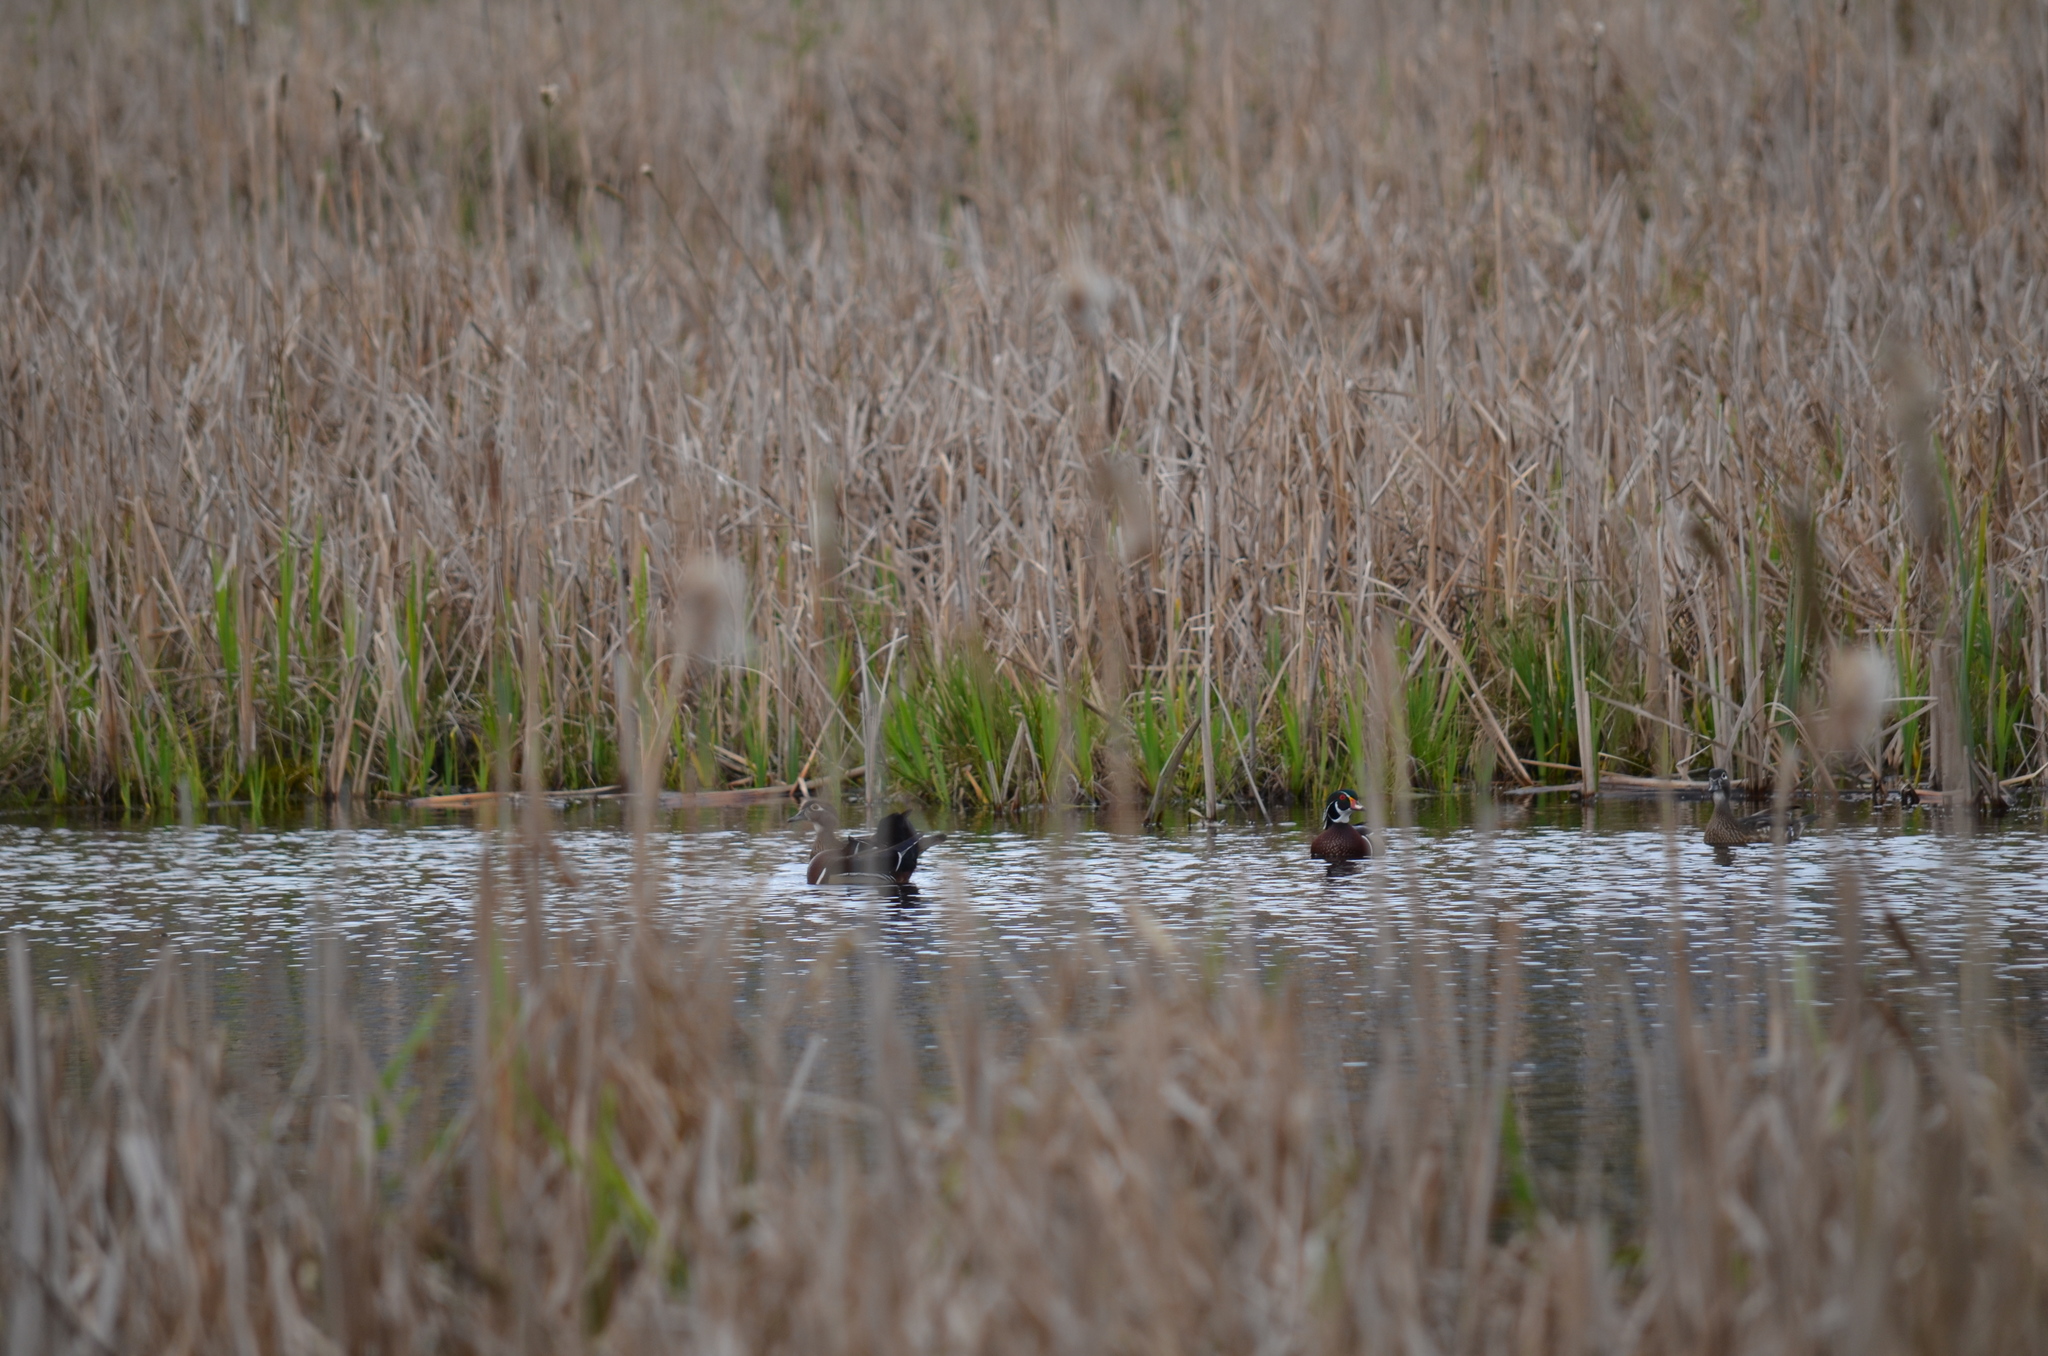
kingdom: Animalia
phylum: Chordata
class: Aves
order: Anseriformes
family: Anatidae
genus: Aix
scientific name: Aix sponsa
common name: Wood duck
